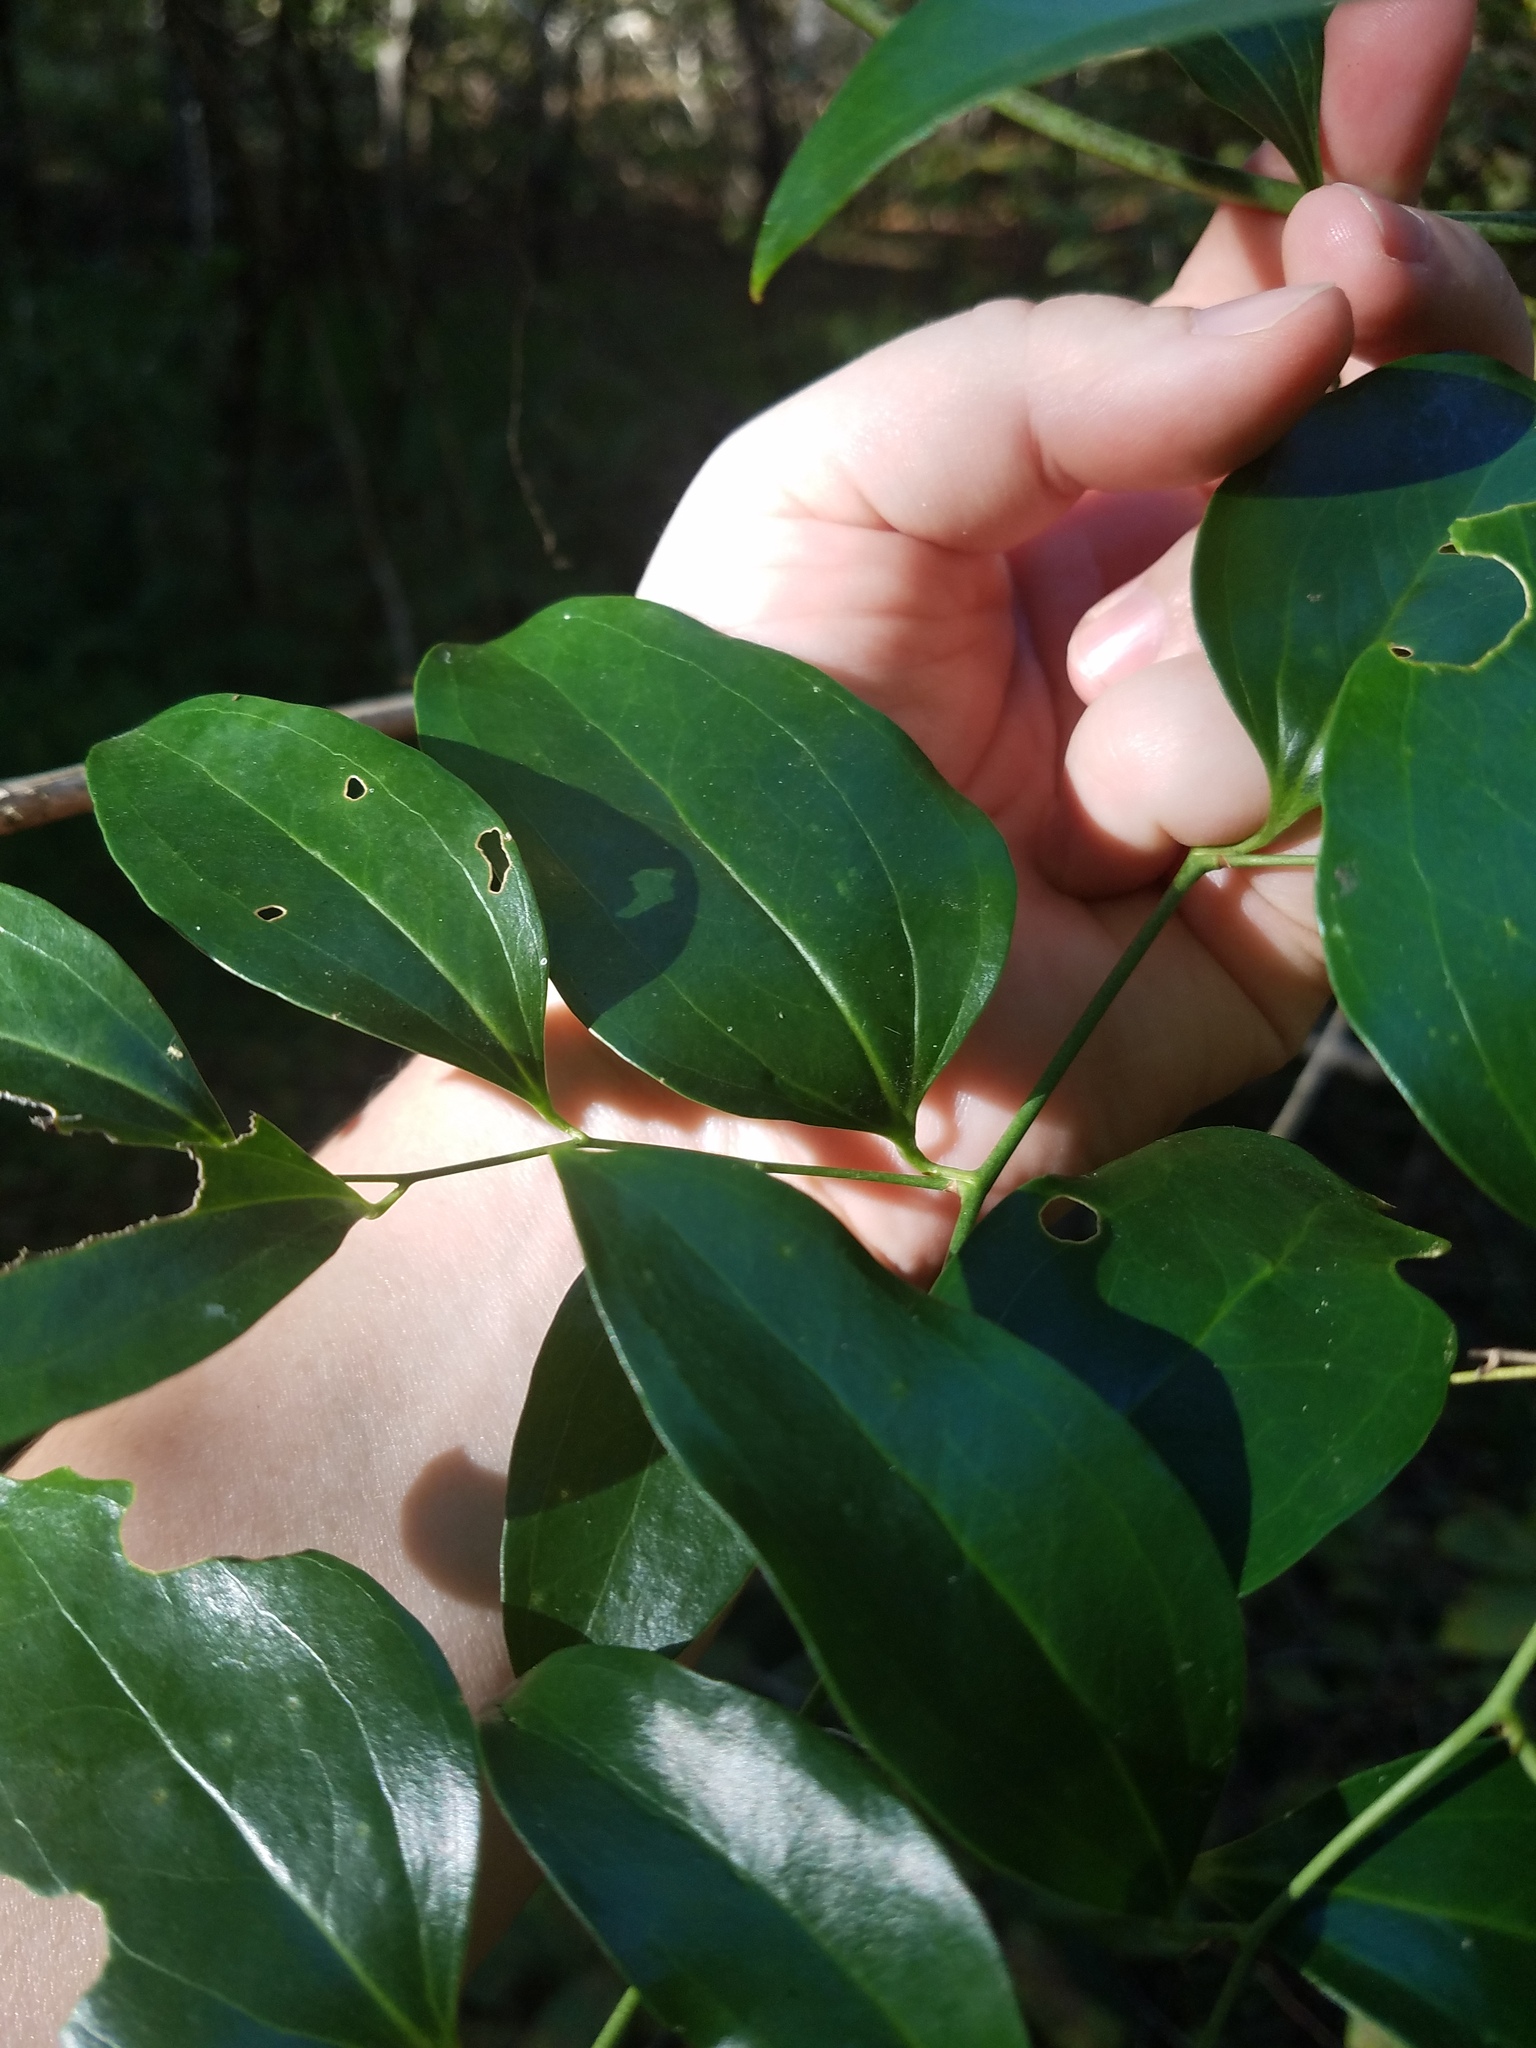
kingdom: Plantae
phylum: Tracheophyta
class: Liliopsida
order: Liliales
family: Smilacaceae
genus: Smilax
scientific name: Smilax maritima
